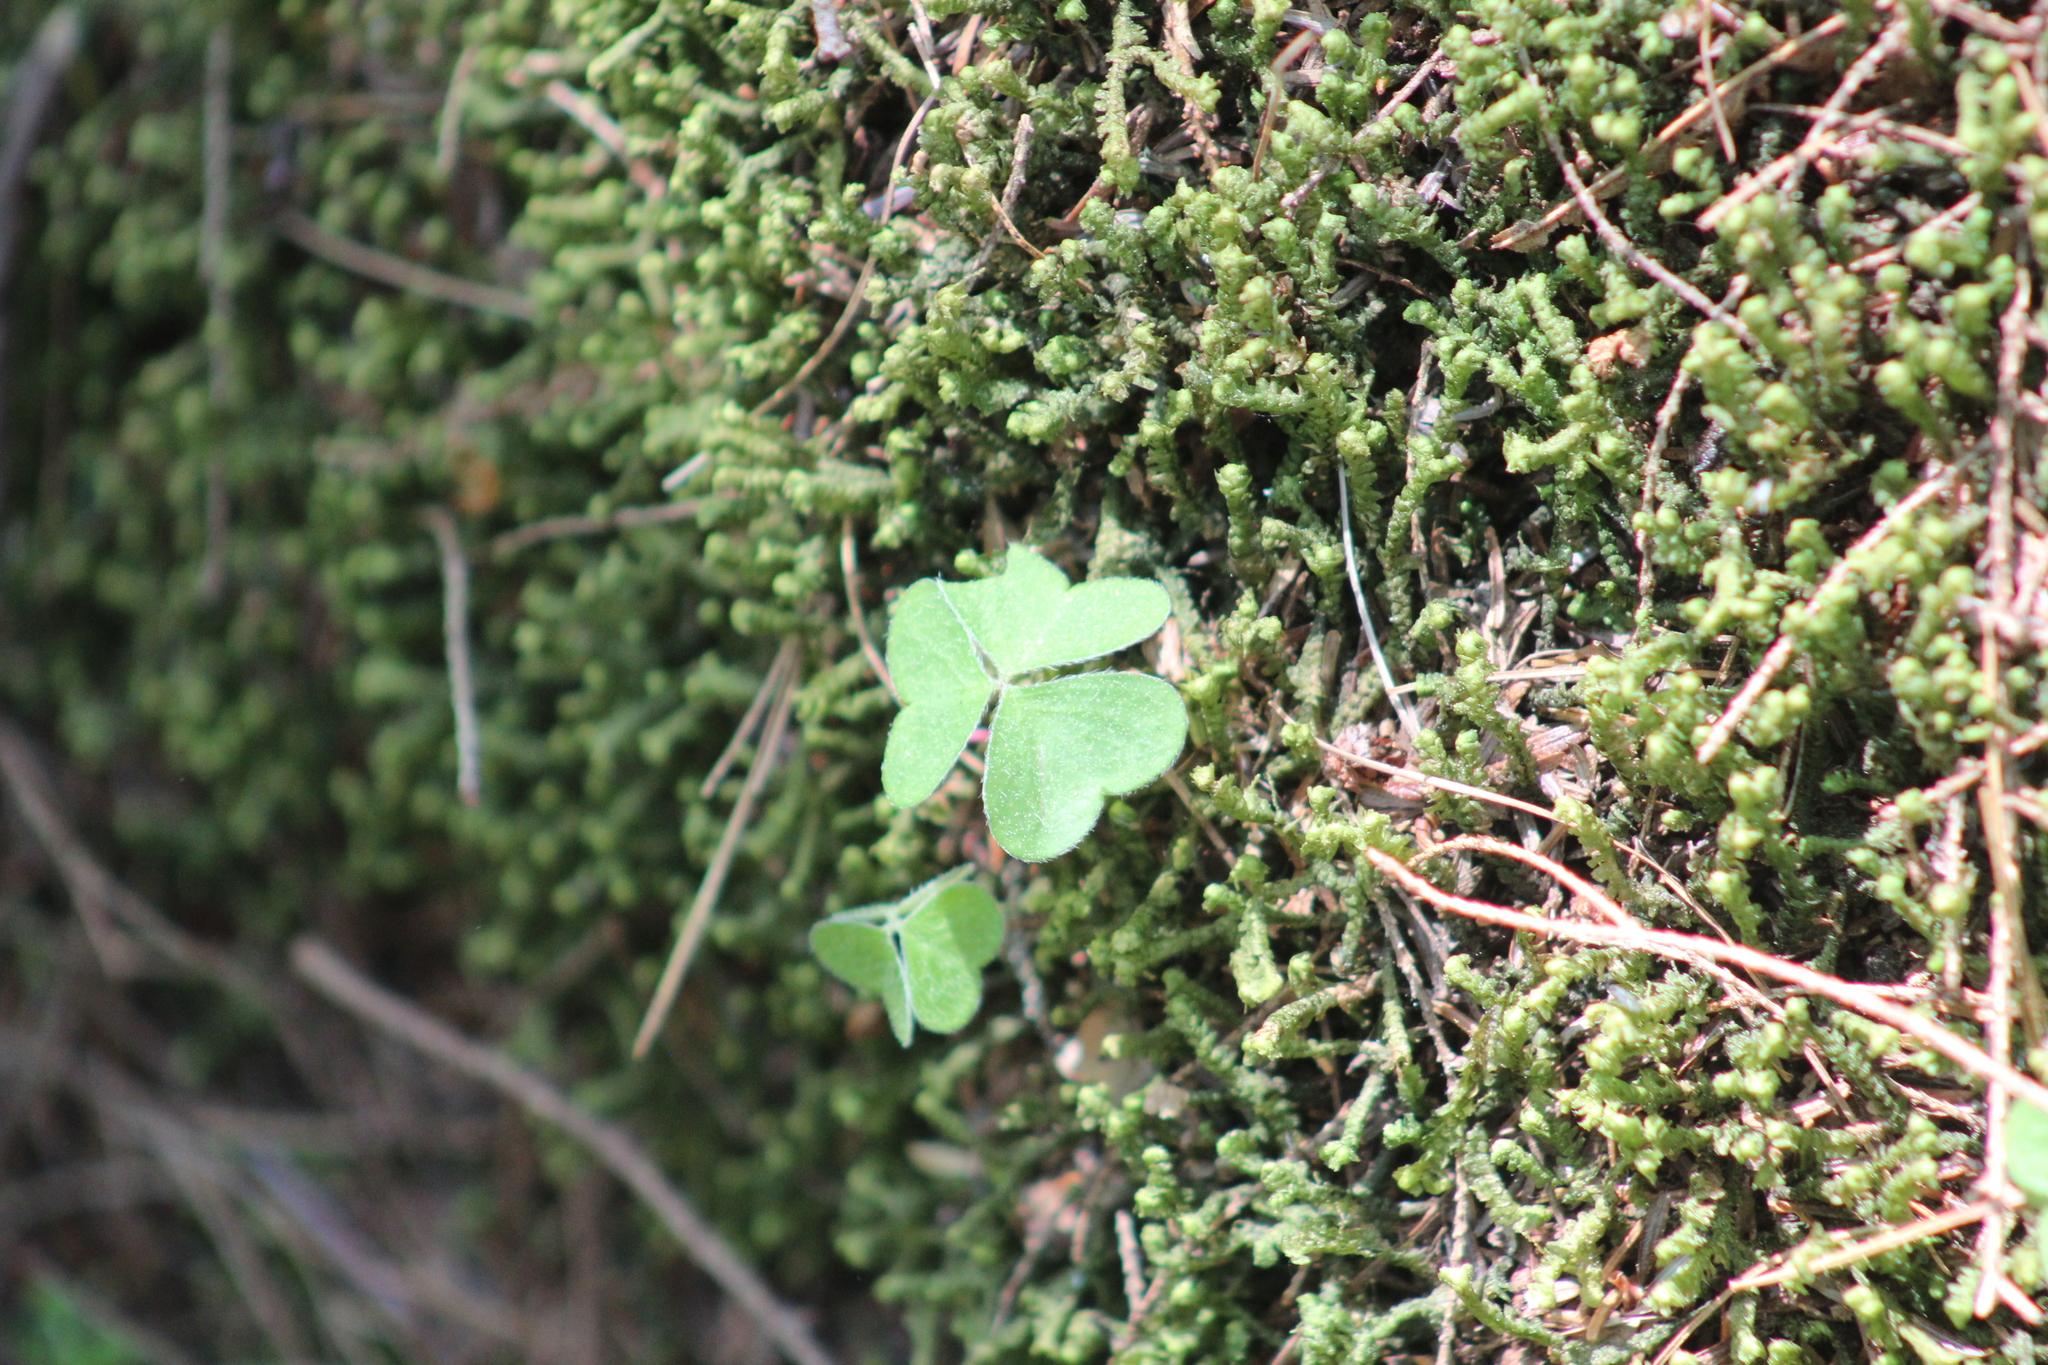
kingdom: Plantae
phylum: Tracheophyta
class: Magnoliopsida
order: Oxalidales
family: Oxalidaceae
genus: Oxalis
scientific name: Oxalis montana
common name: American wood-sorrel
